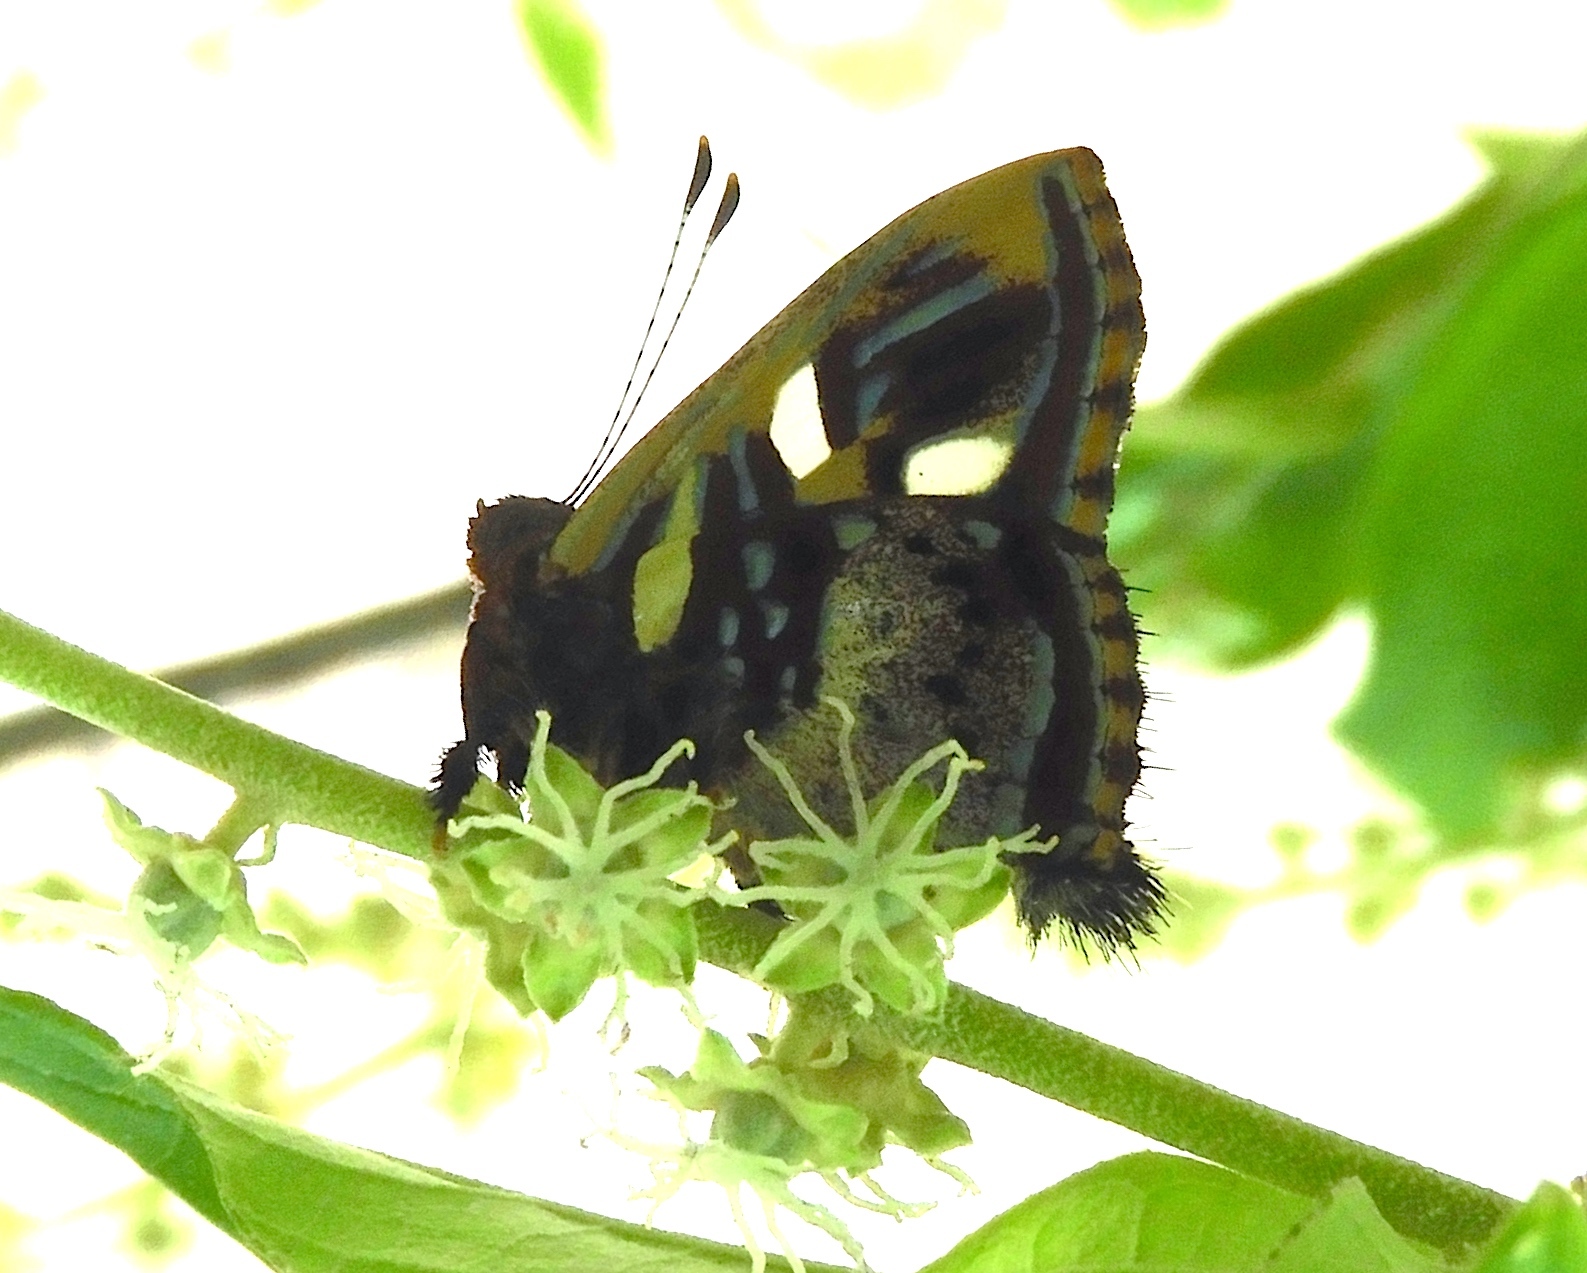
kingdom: Animalia
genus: Anteros
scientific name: Anteros carausius
